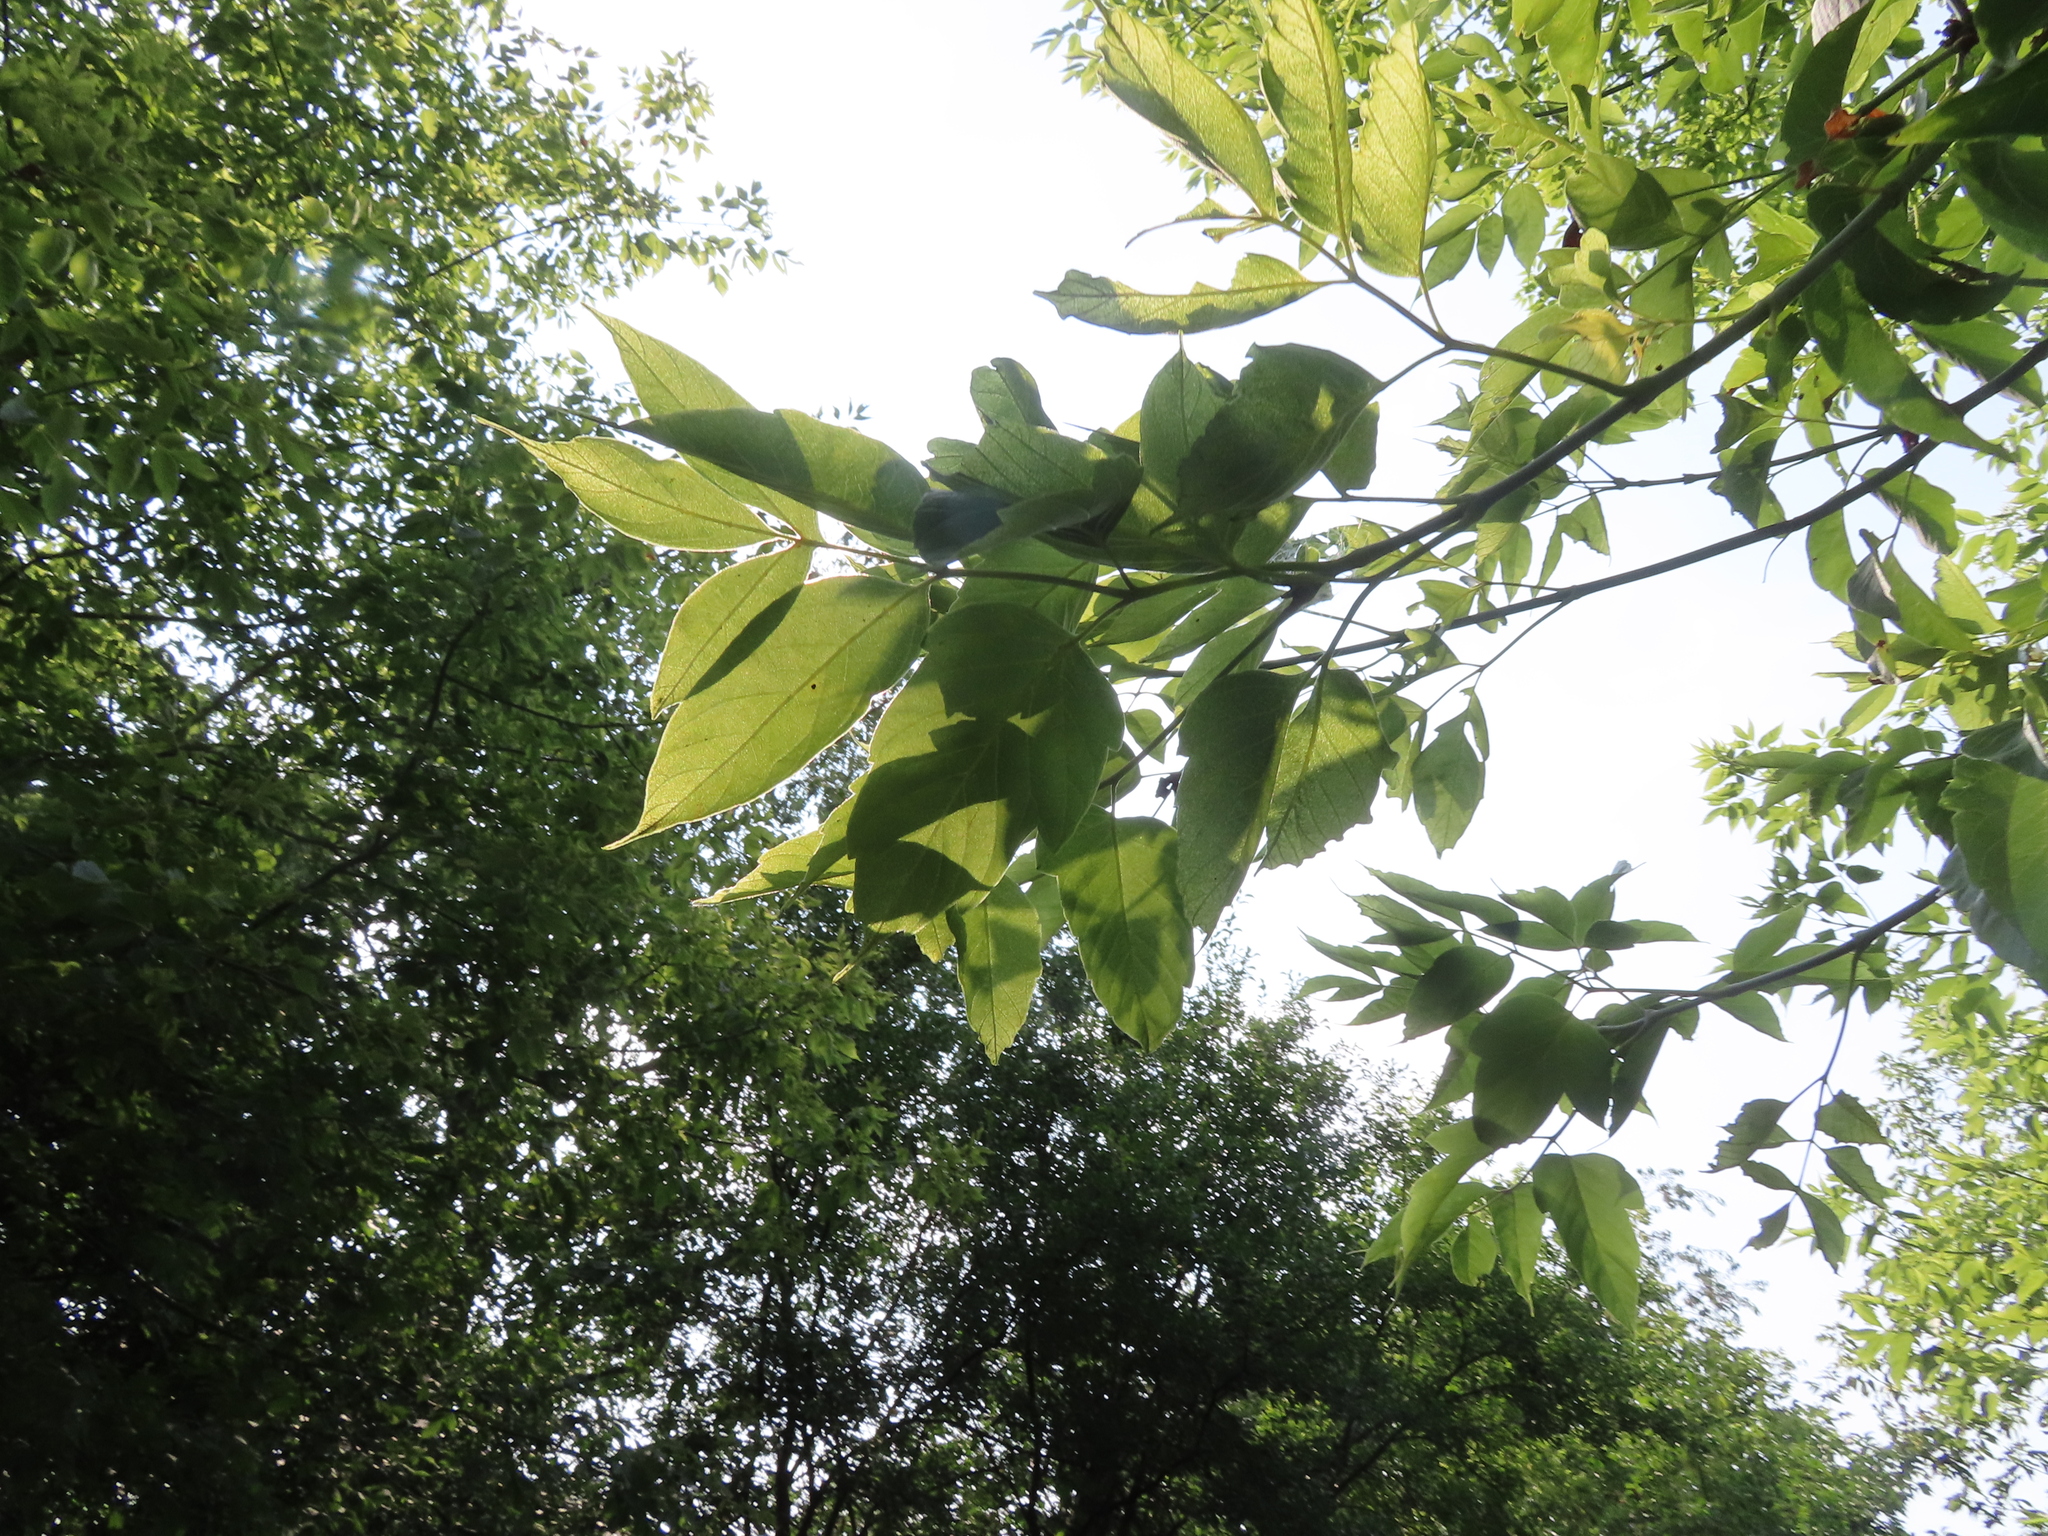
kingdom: Plantae
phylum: Tracheophyta
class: Magnoliopsida
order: Sapindales
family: Sapindaceae
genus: Acer
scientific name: Acer negundo
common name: Ashleaf maple
